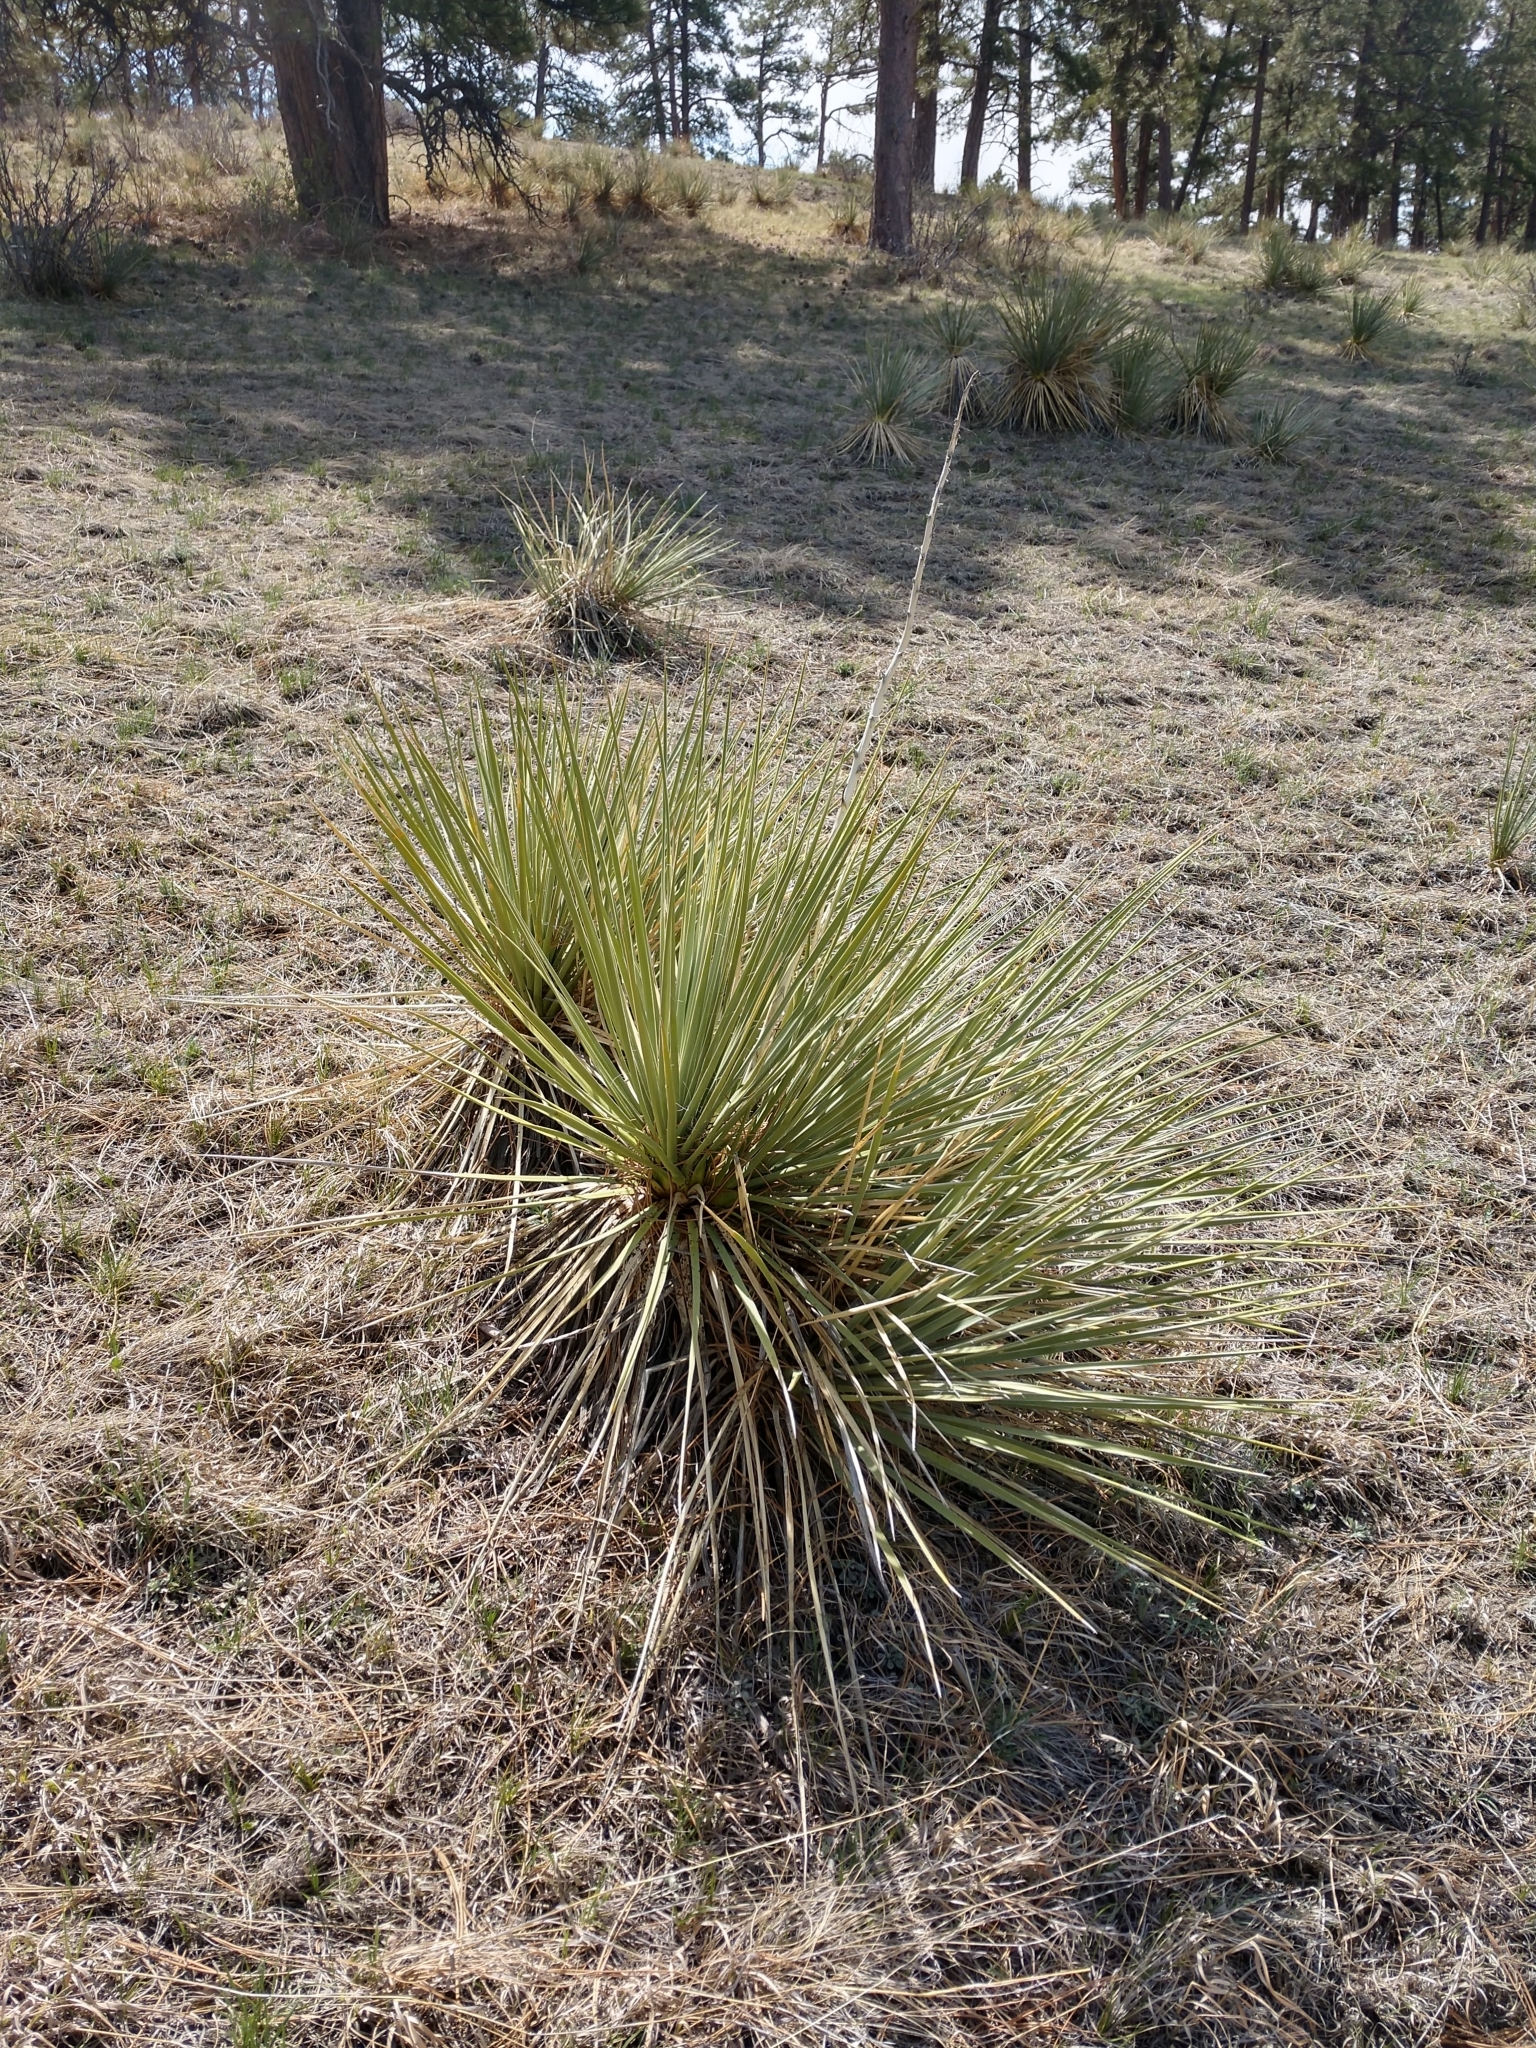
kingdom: Plantae
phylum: Tracheophyta
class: Liliopsida
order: Asparagales
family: Asparagaceae
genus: Yucca
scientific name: Yucca glauca
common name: Great plains yucca
